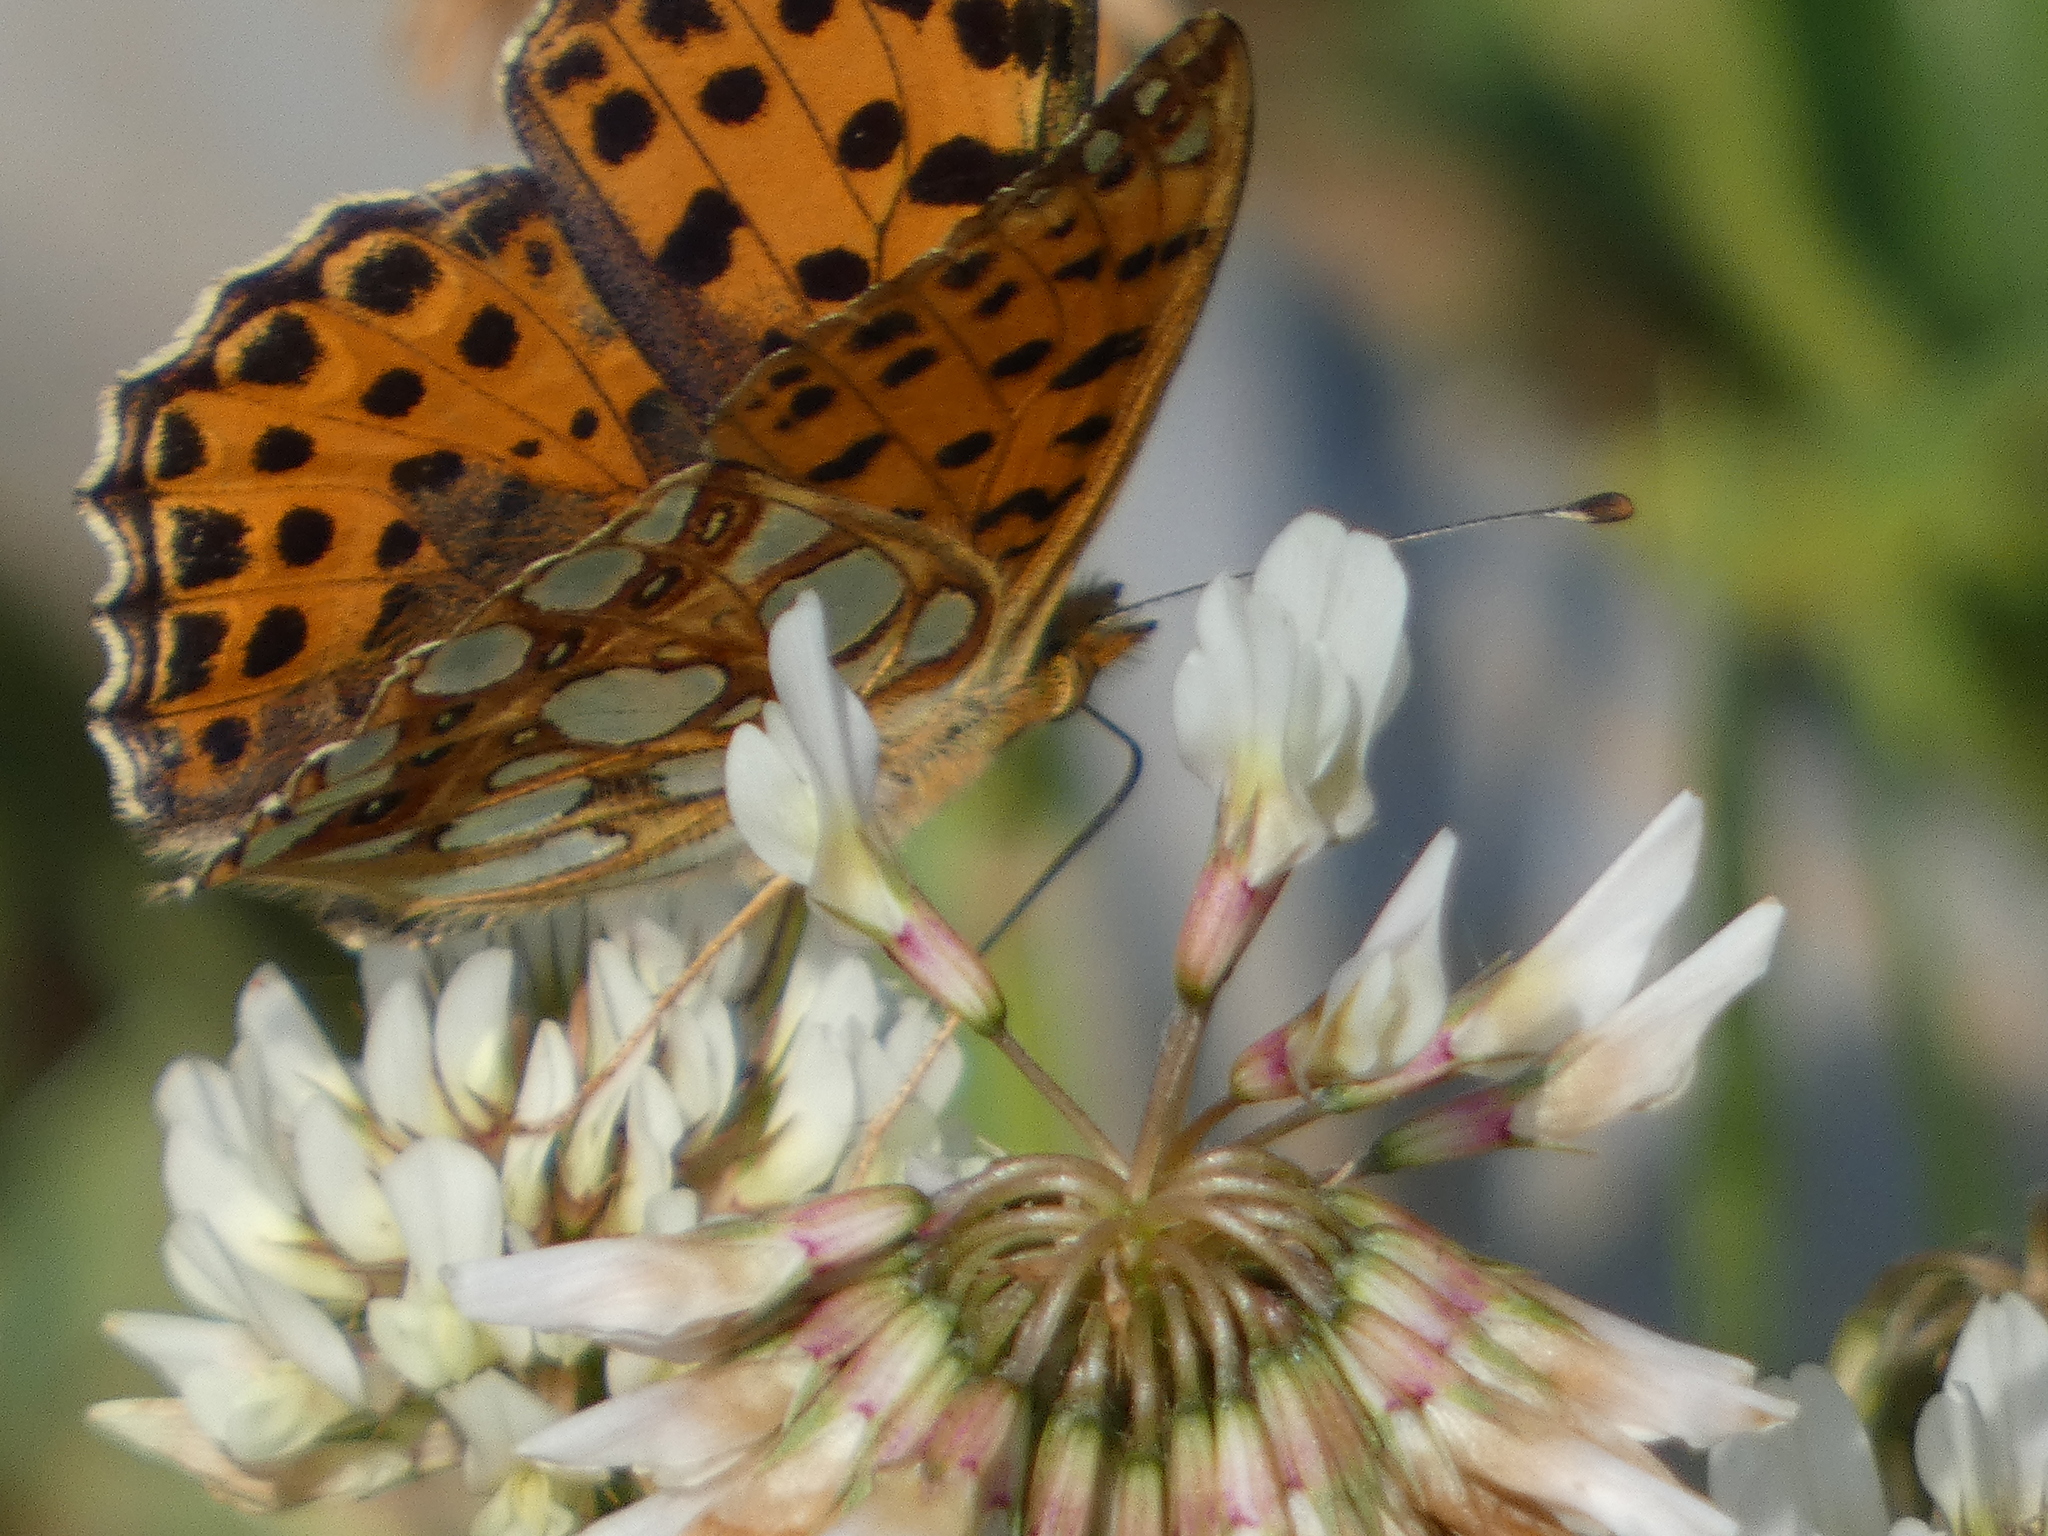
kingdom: Animalia
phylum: Arthropoda
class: Insecta
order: Lepidoptera
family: Nymphalidae
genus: Issoria
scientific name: Issoria lathonia
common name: Queen of spain fritillary
